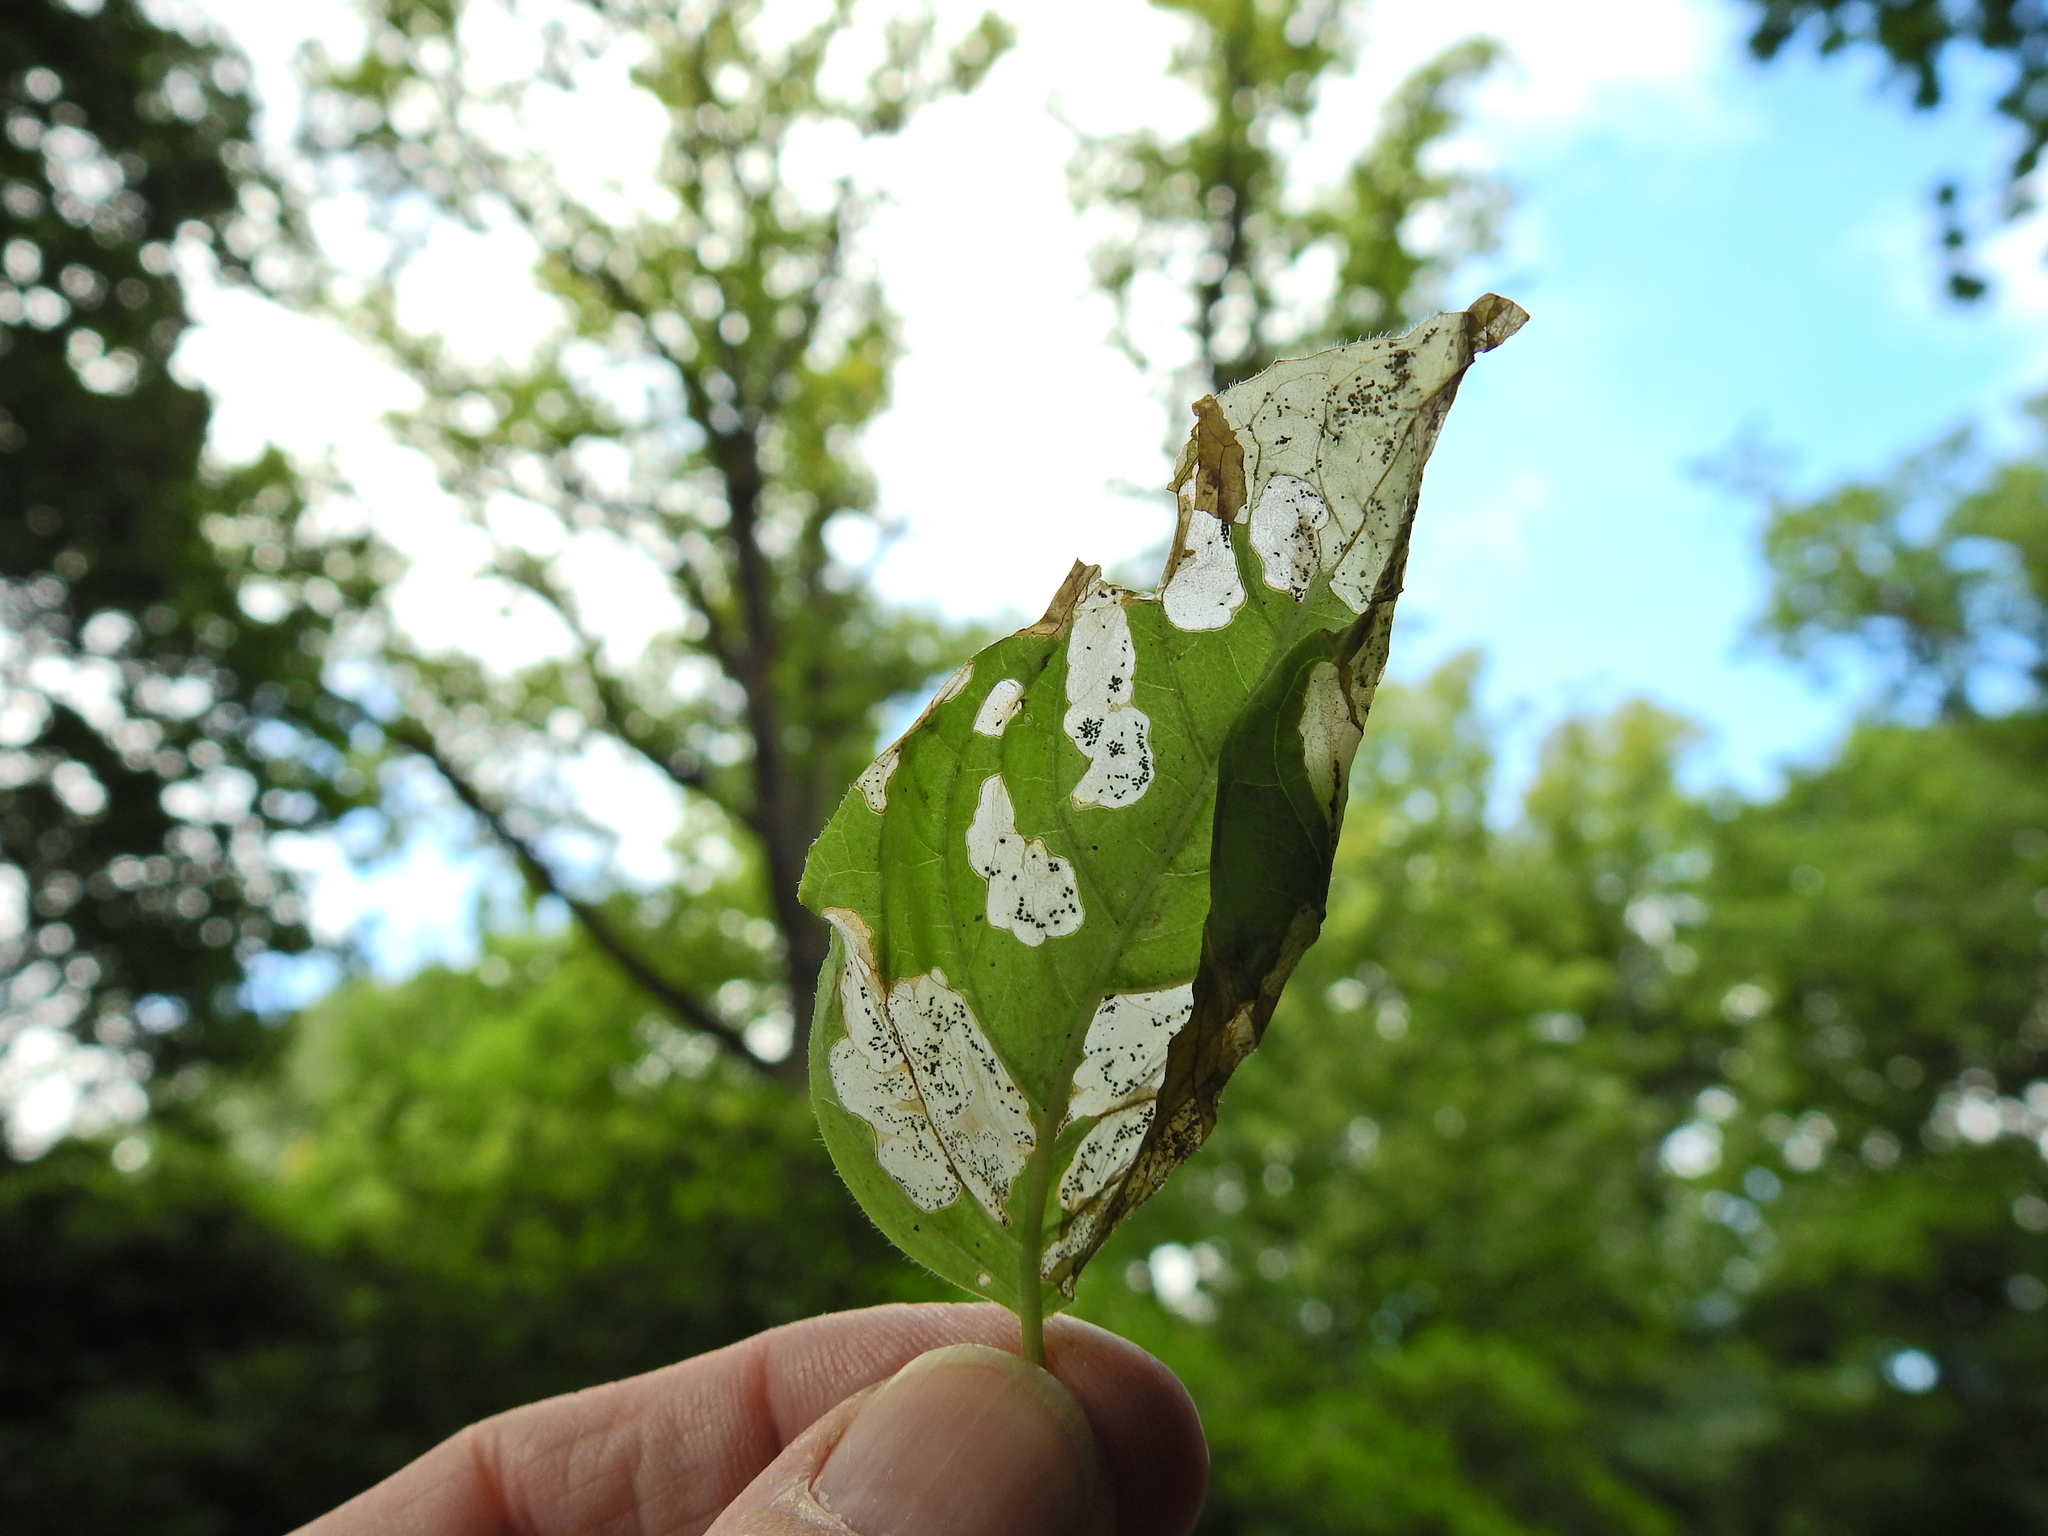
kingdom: Animalia
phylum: Arthropoda
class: Insecta
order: Lepidoptera
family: Momphidae
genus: Mompha
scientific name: Mompha langiella
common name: Clouded cosmet
